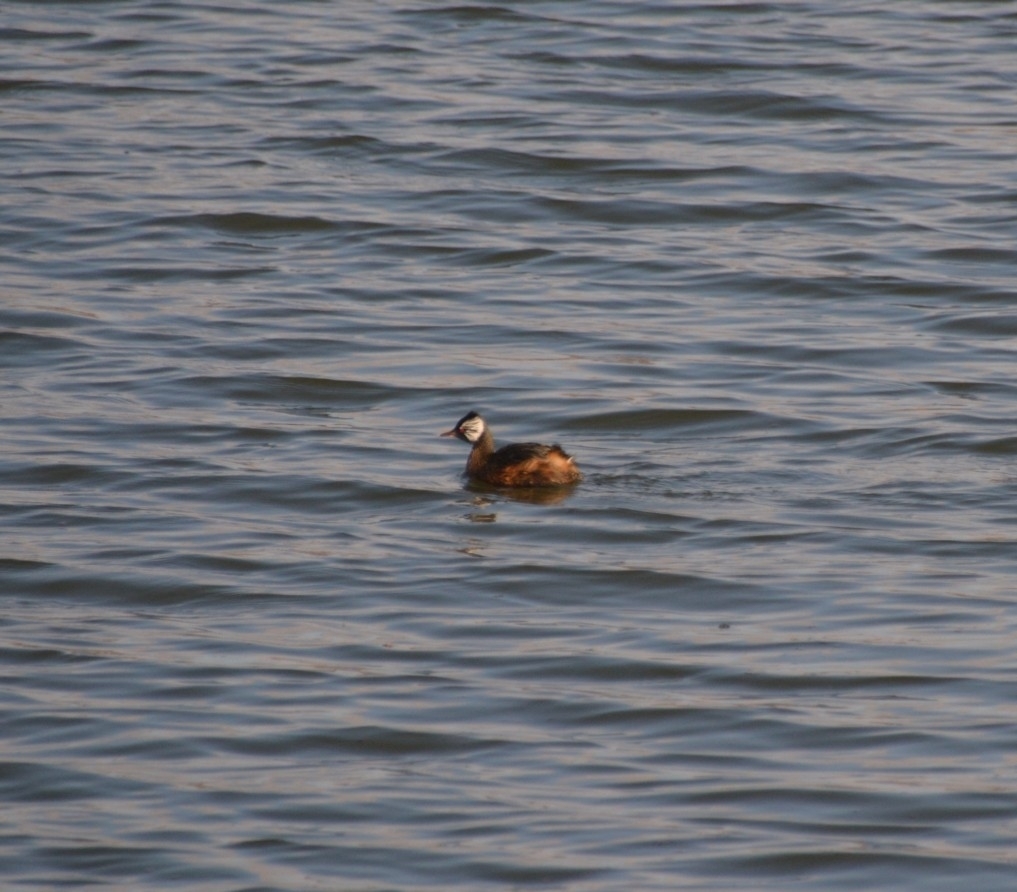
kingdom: Animalia
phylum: Chordata
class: Aves
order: Podicipediformes
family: Podicipedidae
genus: Rollandia
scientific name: Rollandia rolland
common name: White-tufted grebe
